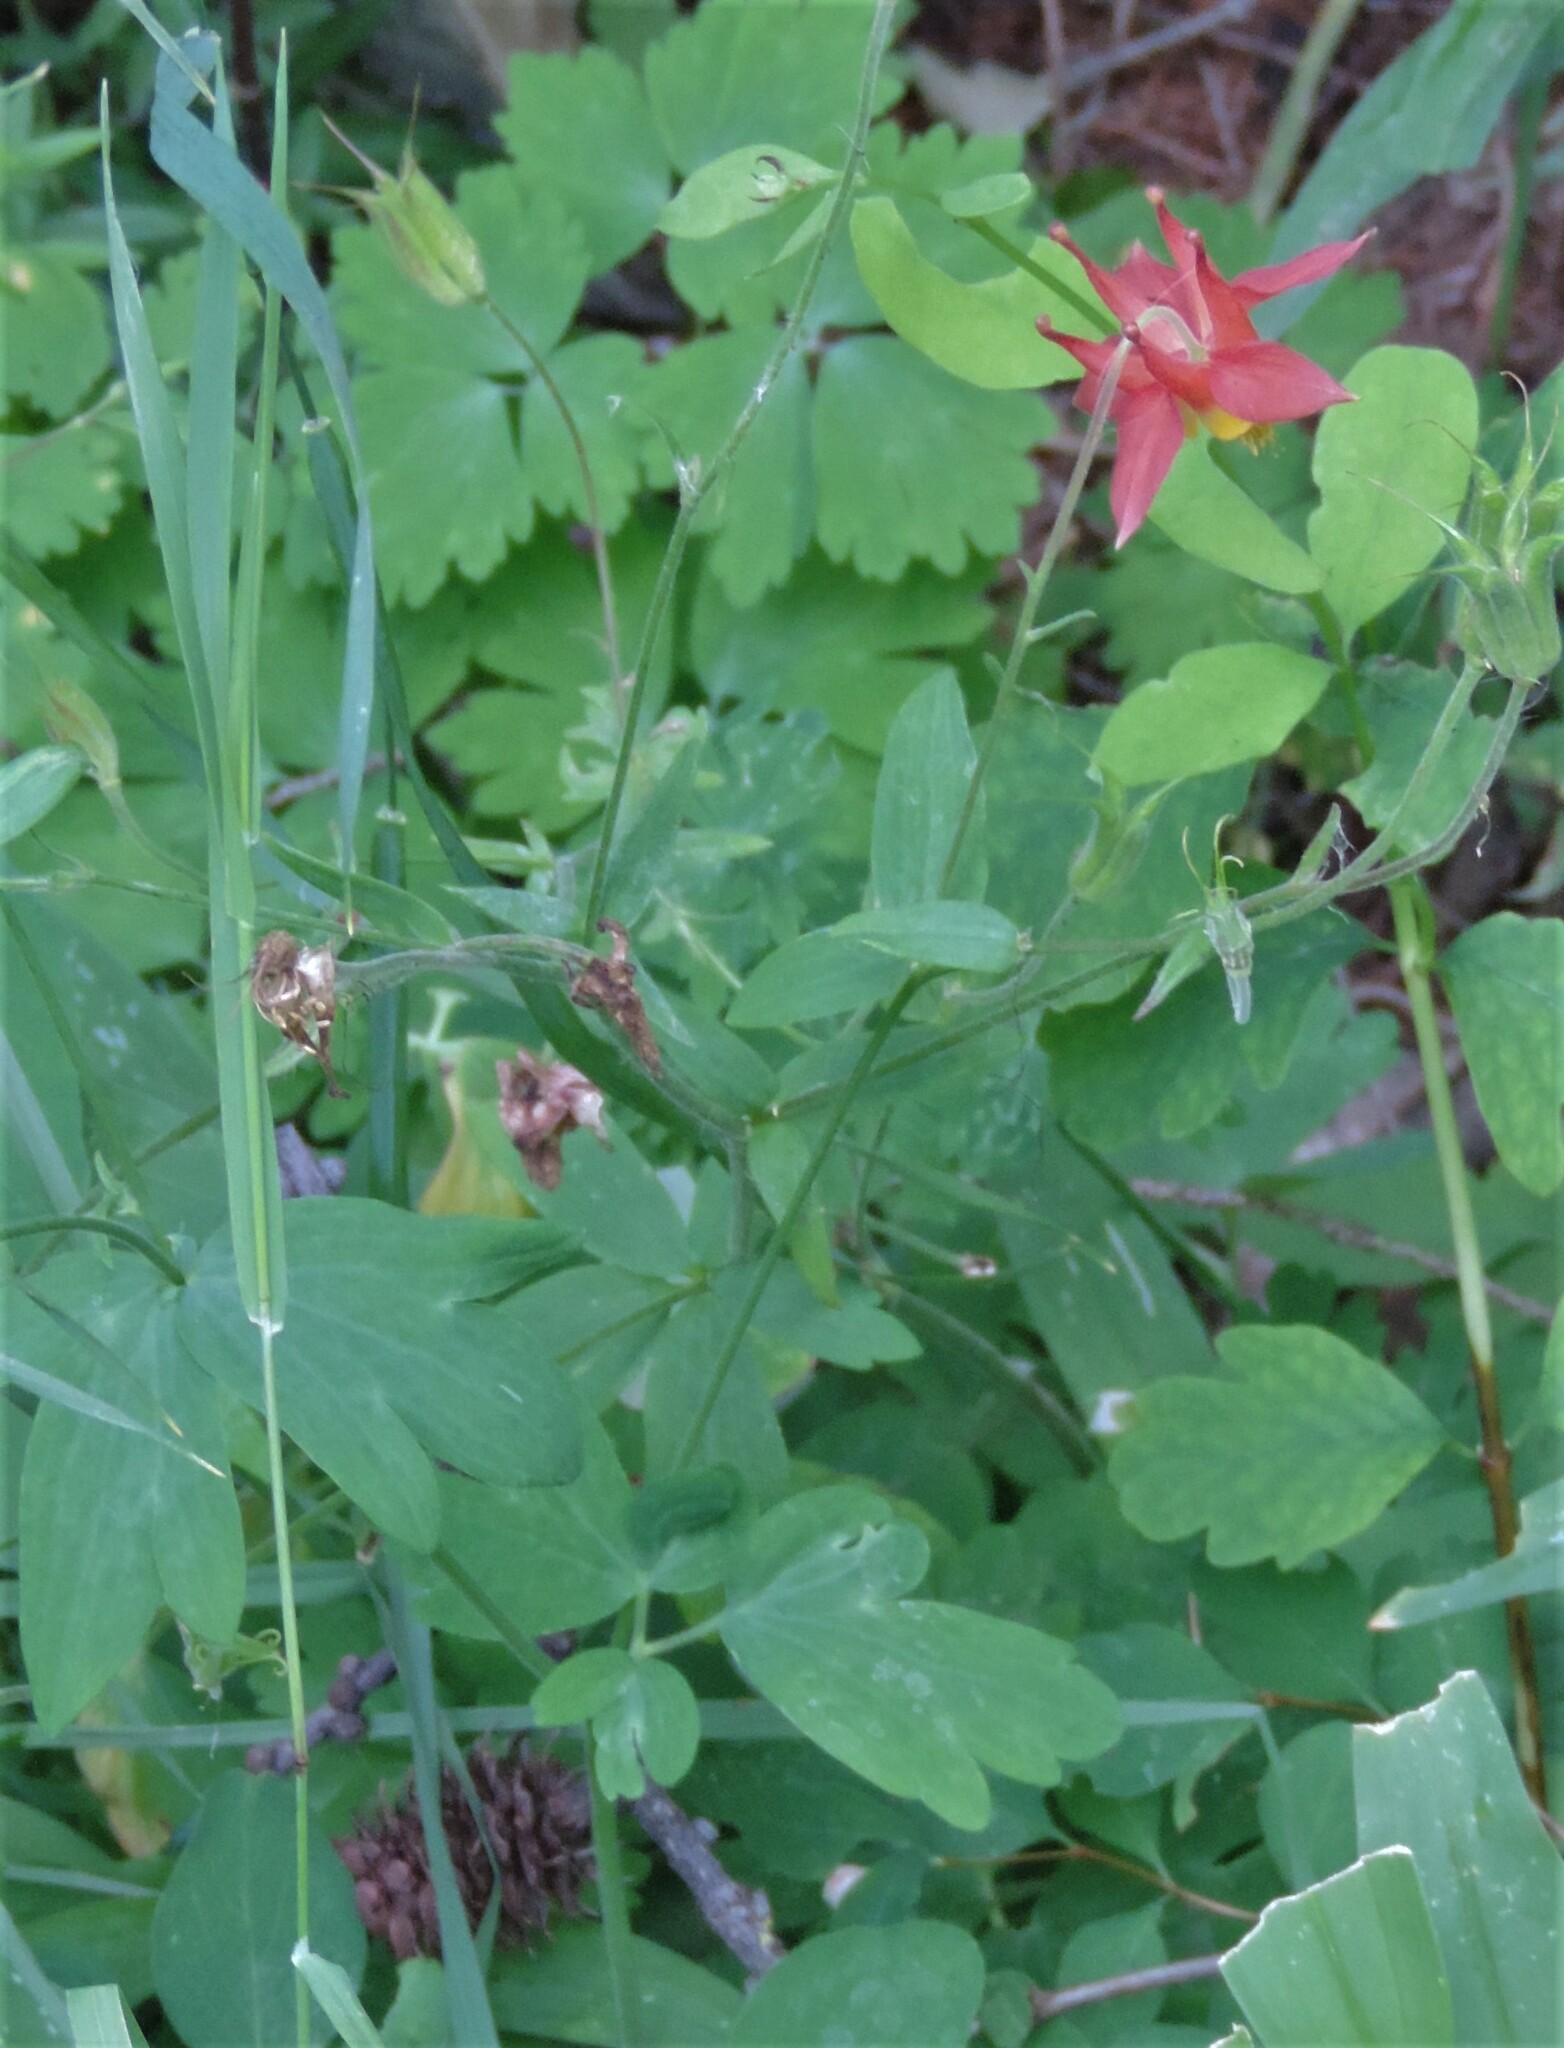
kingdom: Plantae
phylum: Tracheophyta
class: Magnoliopsida
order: Ranunculales
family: Ranunculaceae
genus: Aquilegia
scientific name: Aquilegia formosa
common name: Sitka columbine
